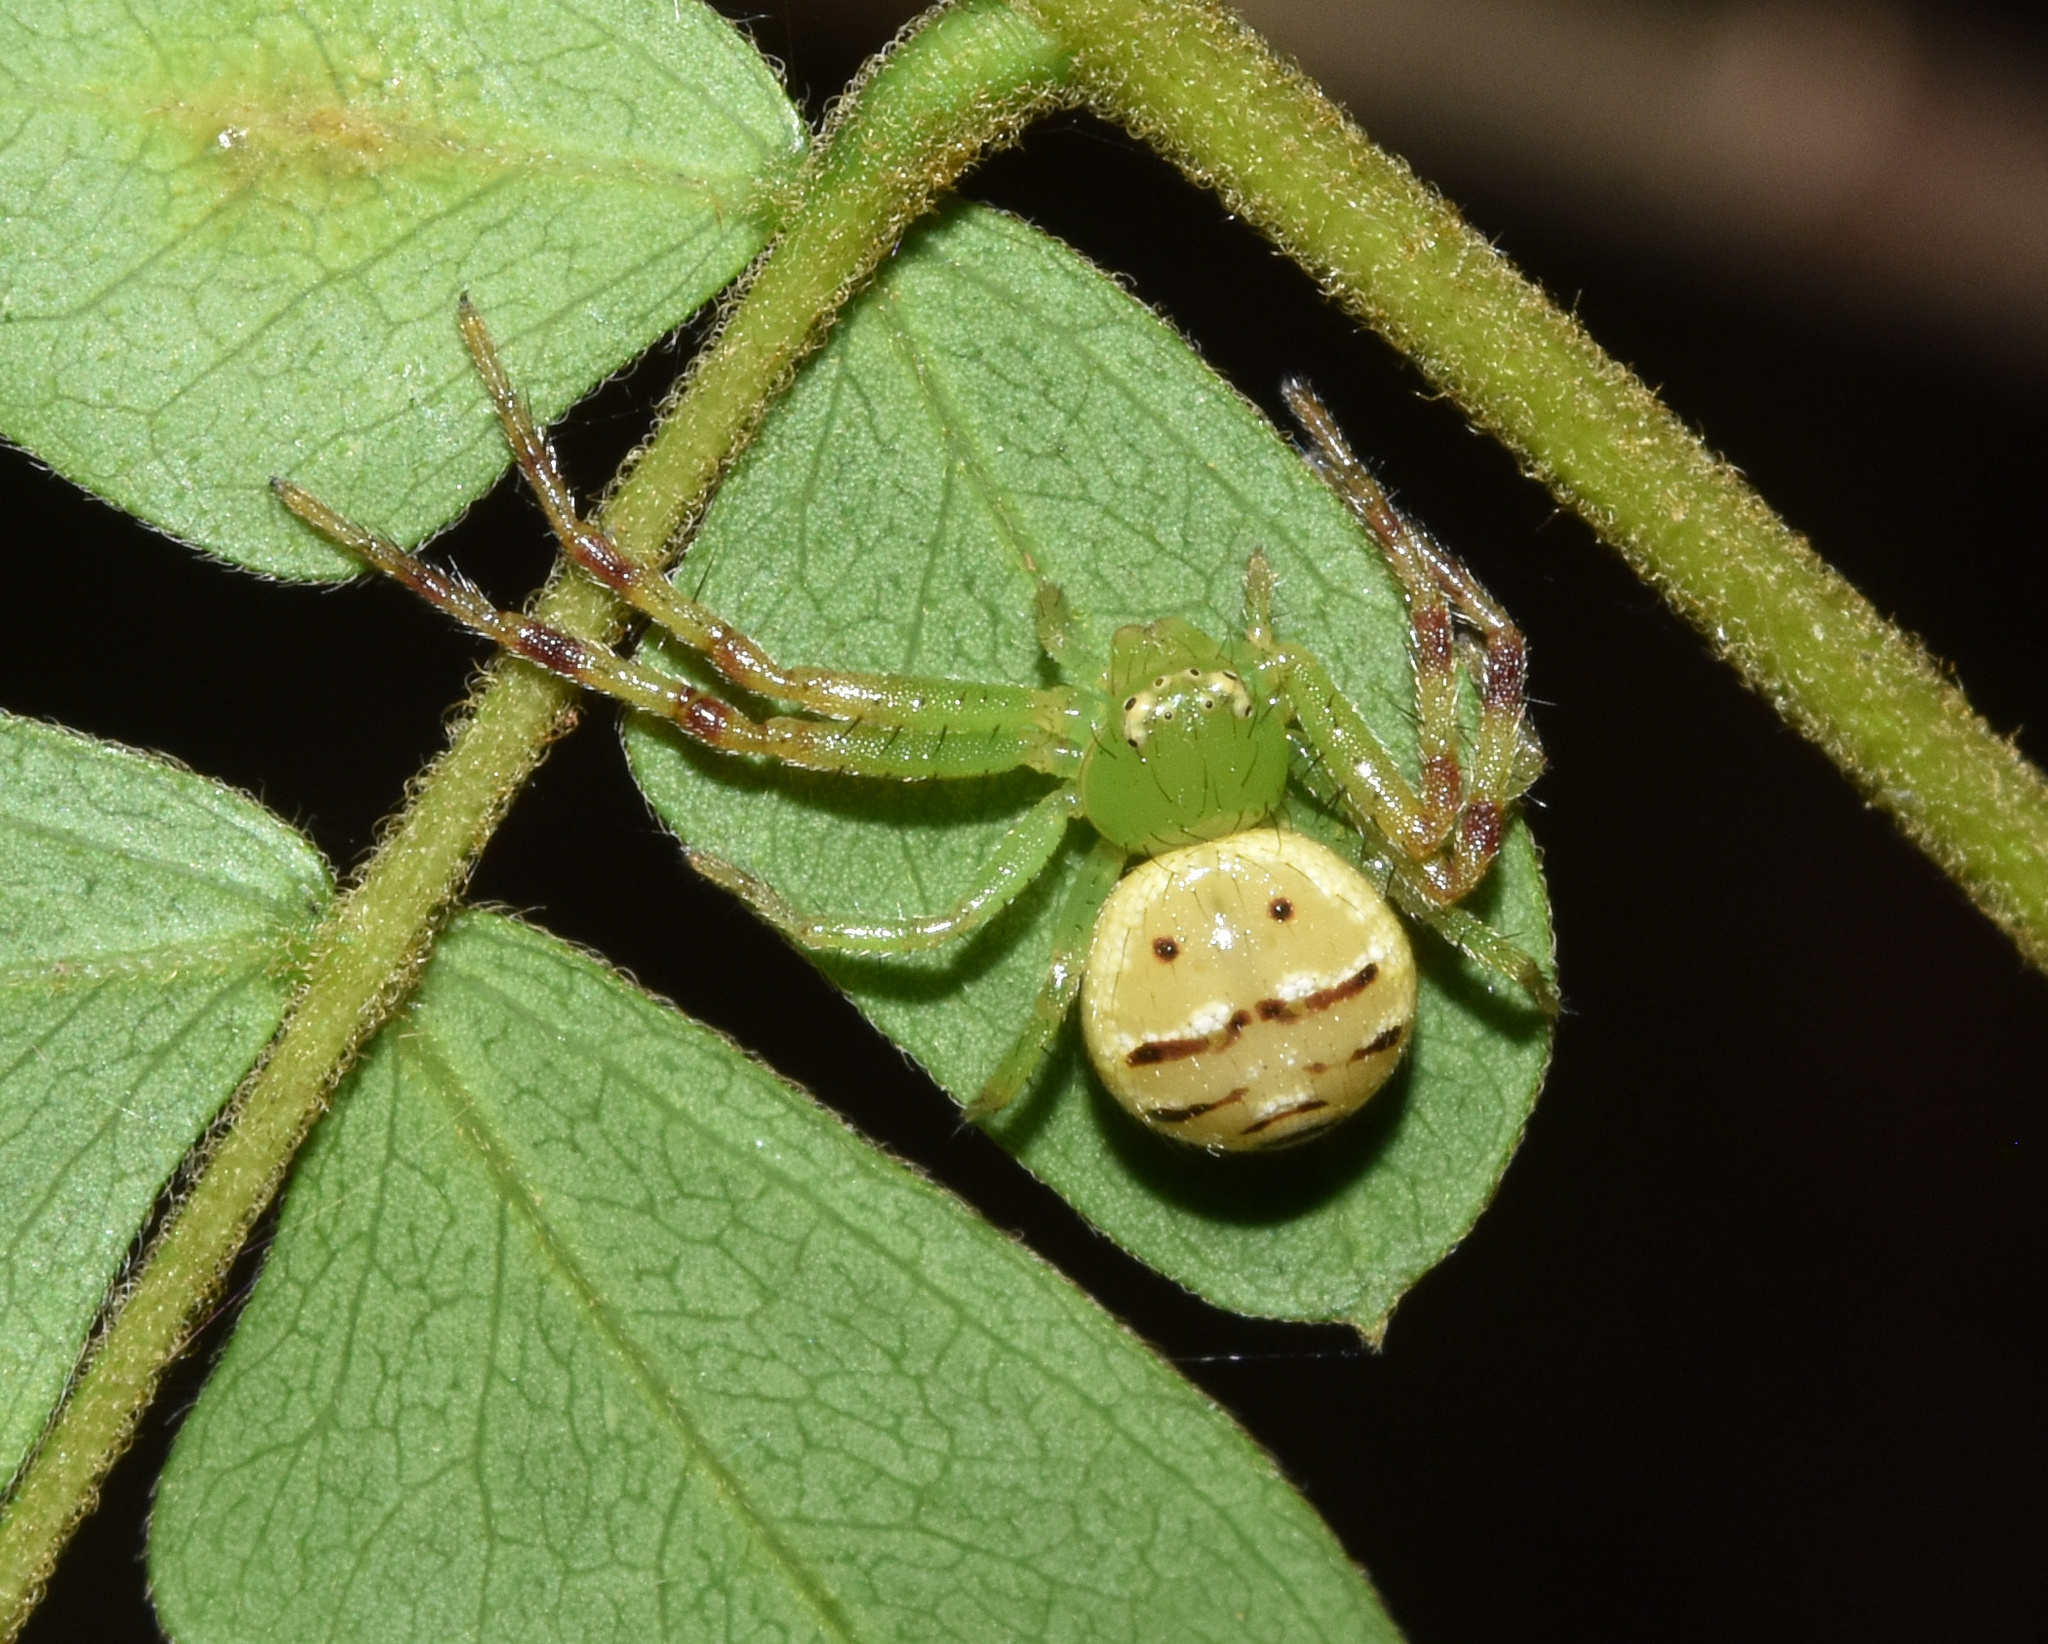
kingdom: Animalia
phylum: Arthropoda
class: Arachnida
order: Araneae
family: Thomisidae
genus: Synema
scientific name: Synema diana
